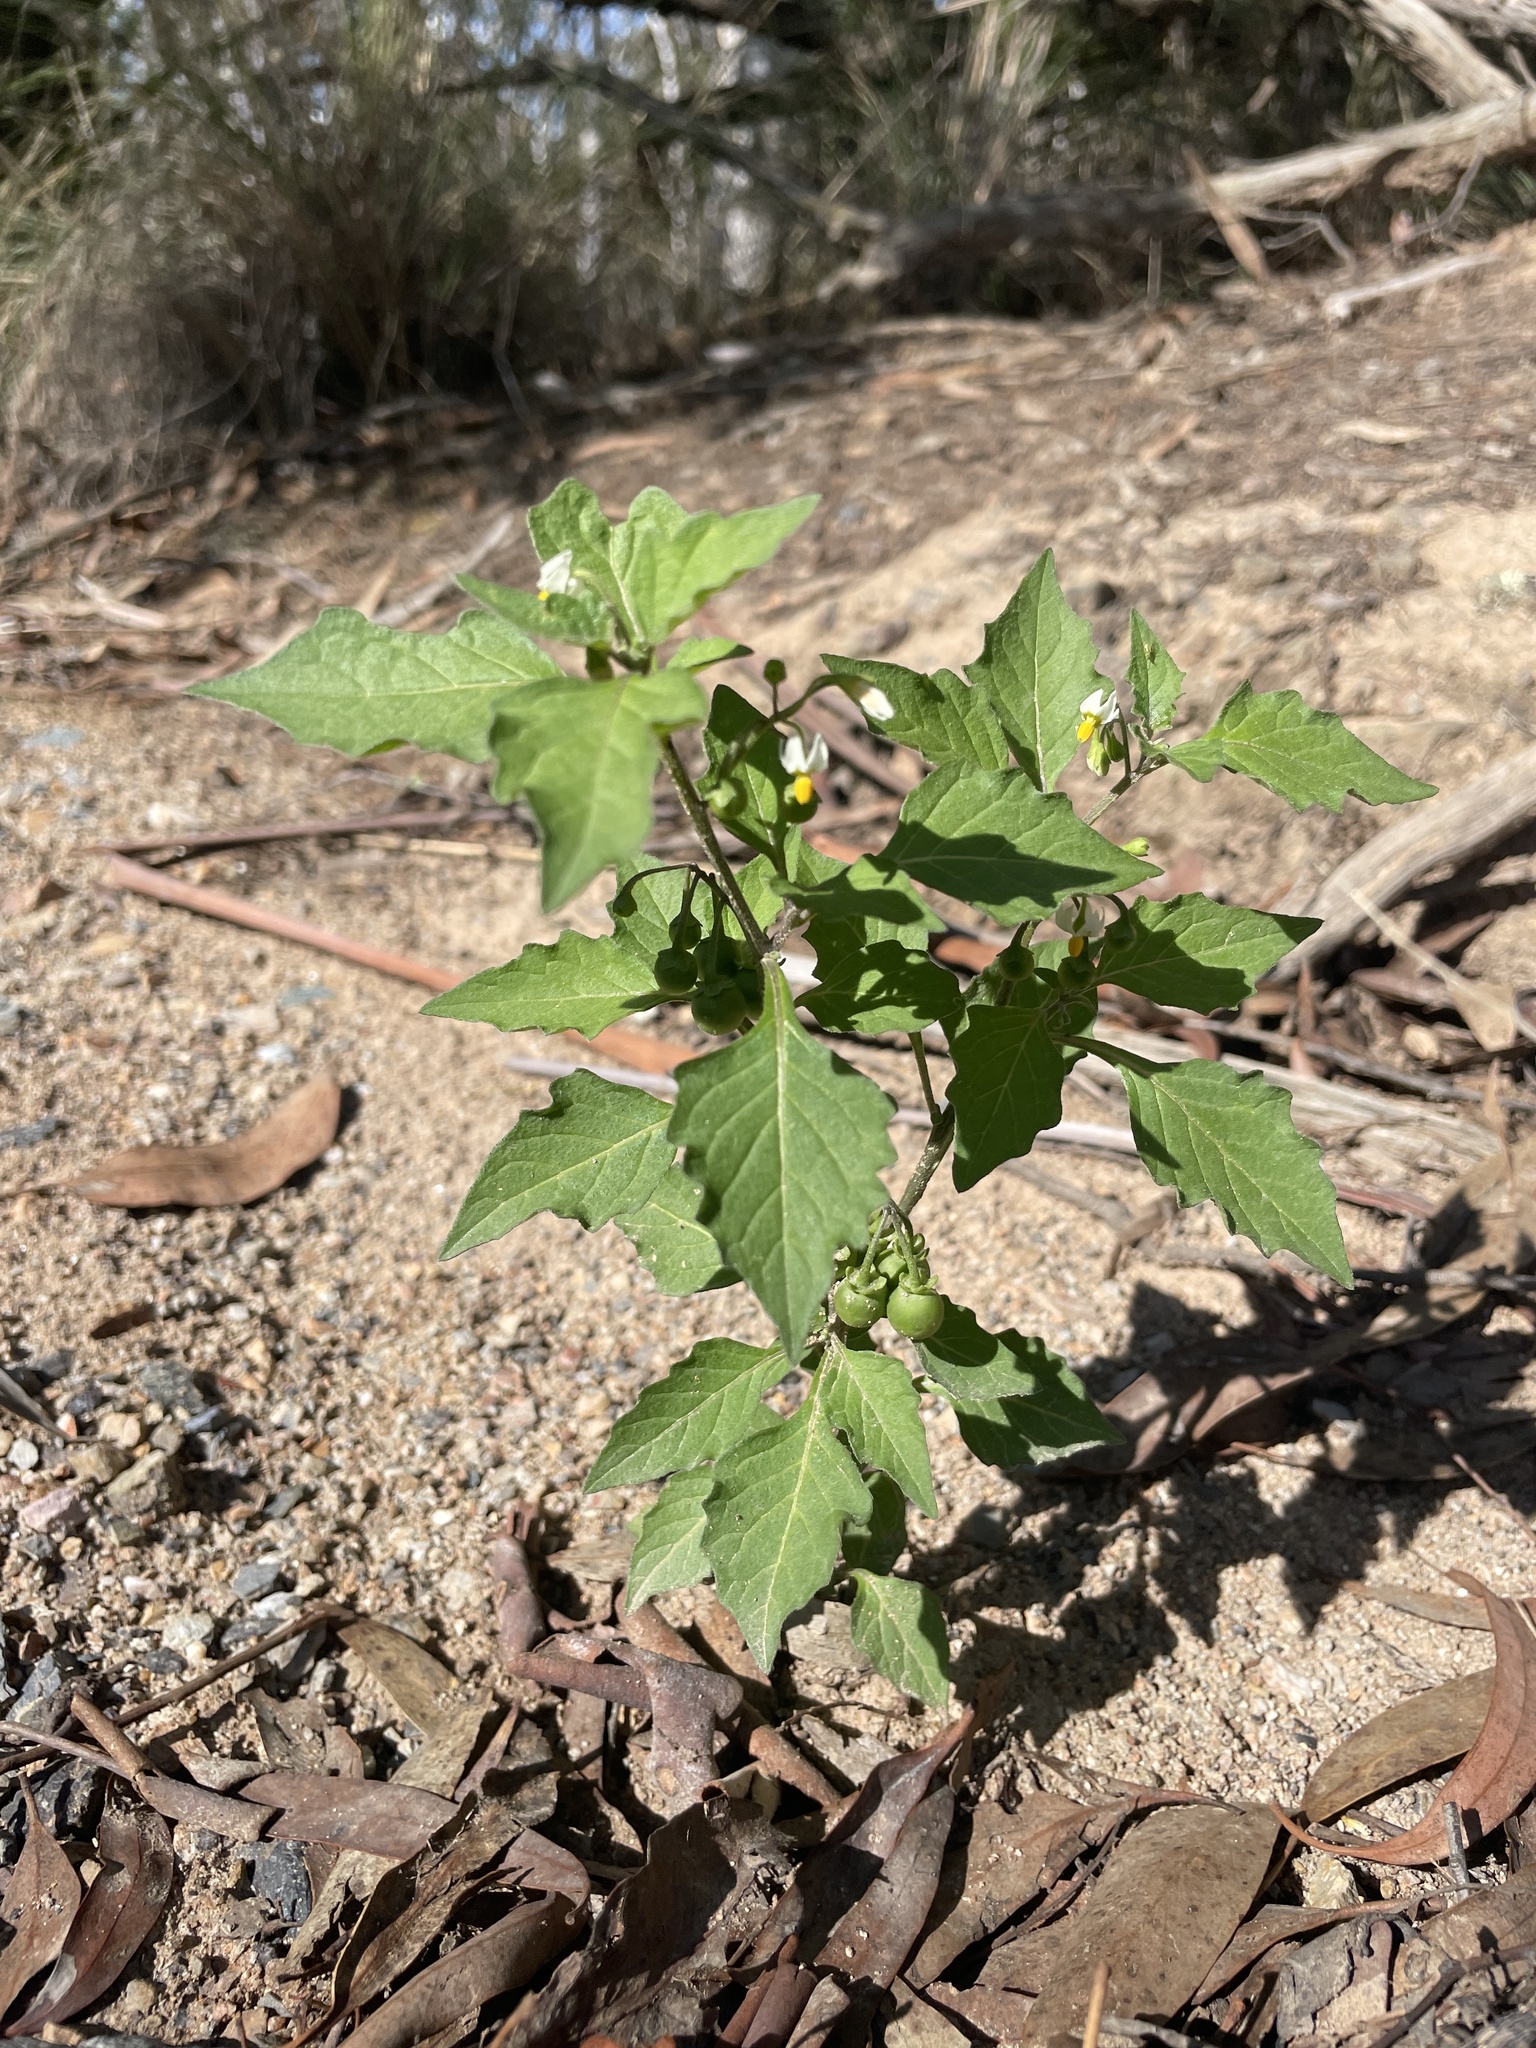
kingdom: Plantae
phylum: Tracheophyta
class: Magnoliopsida
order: Solanales
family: Solanaceae
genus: Solanum
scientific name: Solanum nigrum
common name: Black nightshade
